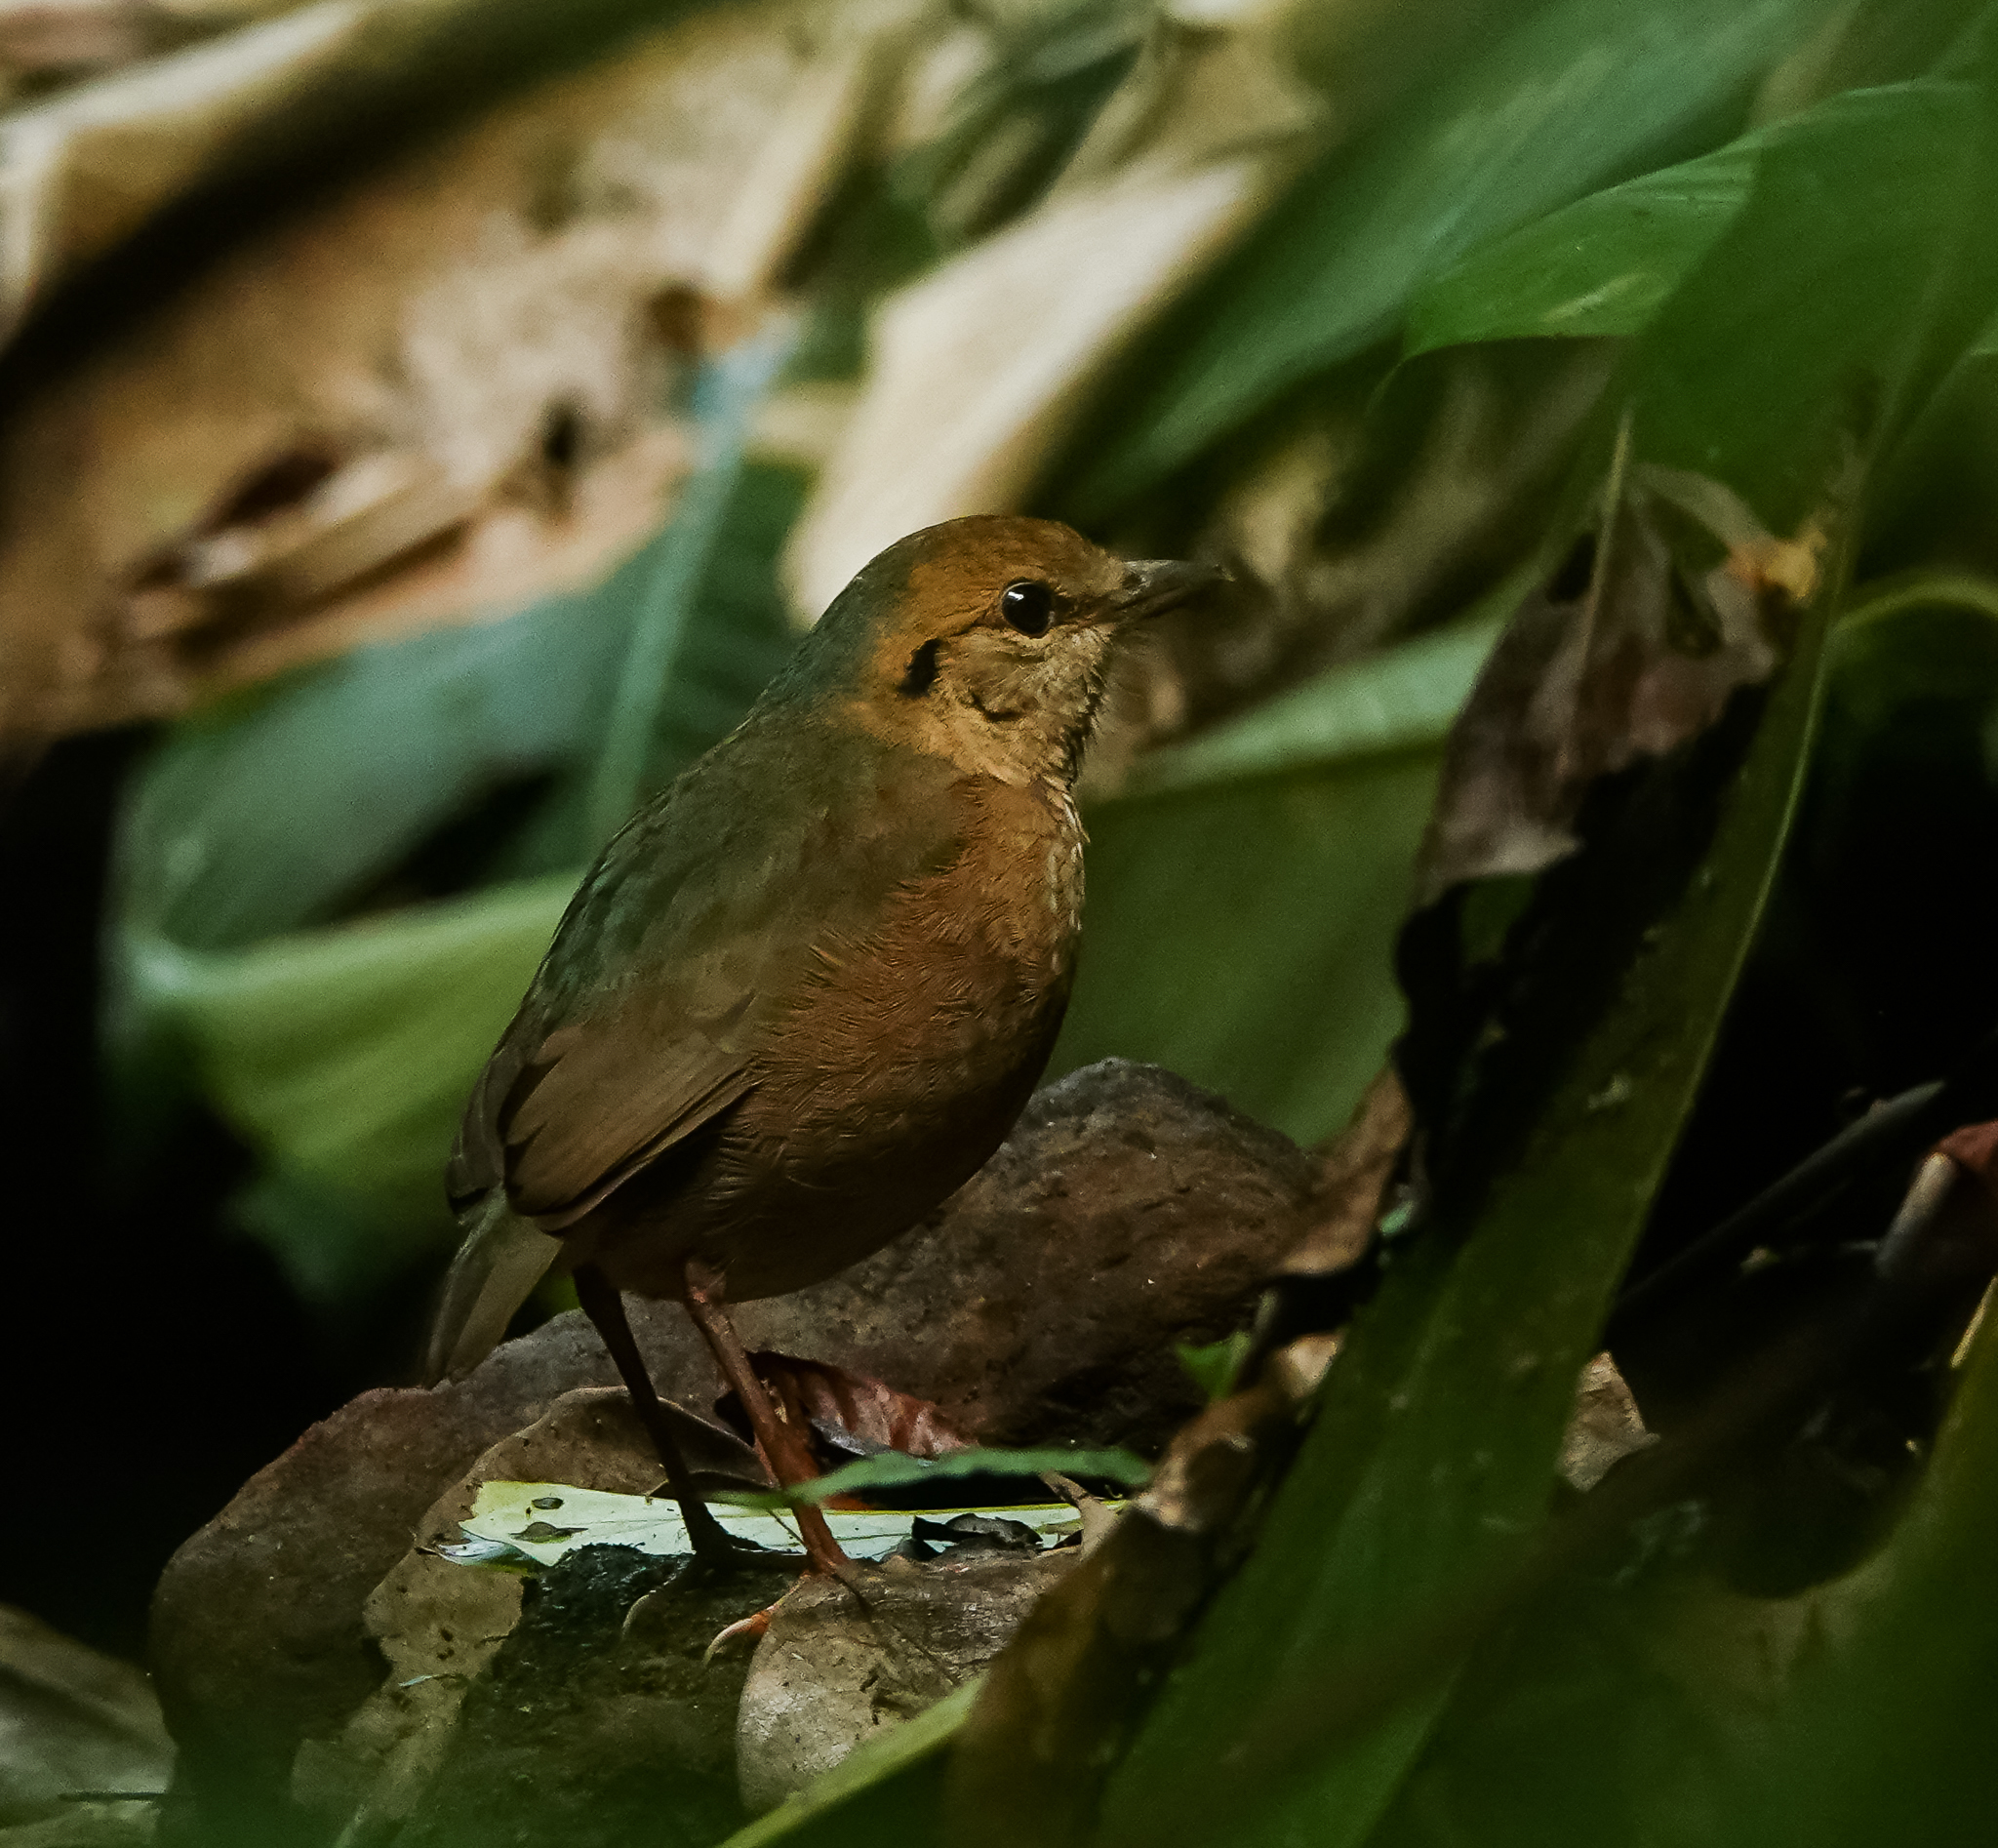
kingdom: Animalia
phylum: Chordata
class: Aves
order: Passeriformes
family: Pittidae
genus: Pitta
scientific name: Pitta nipalensis
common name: Blue-naped pitta
